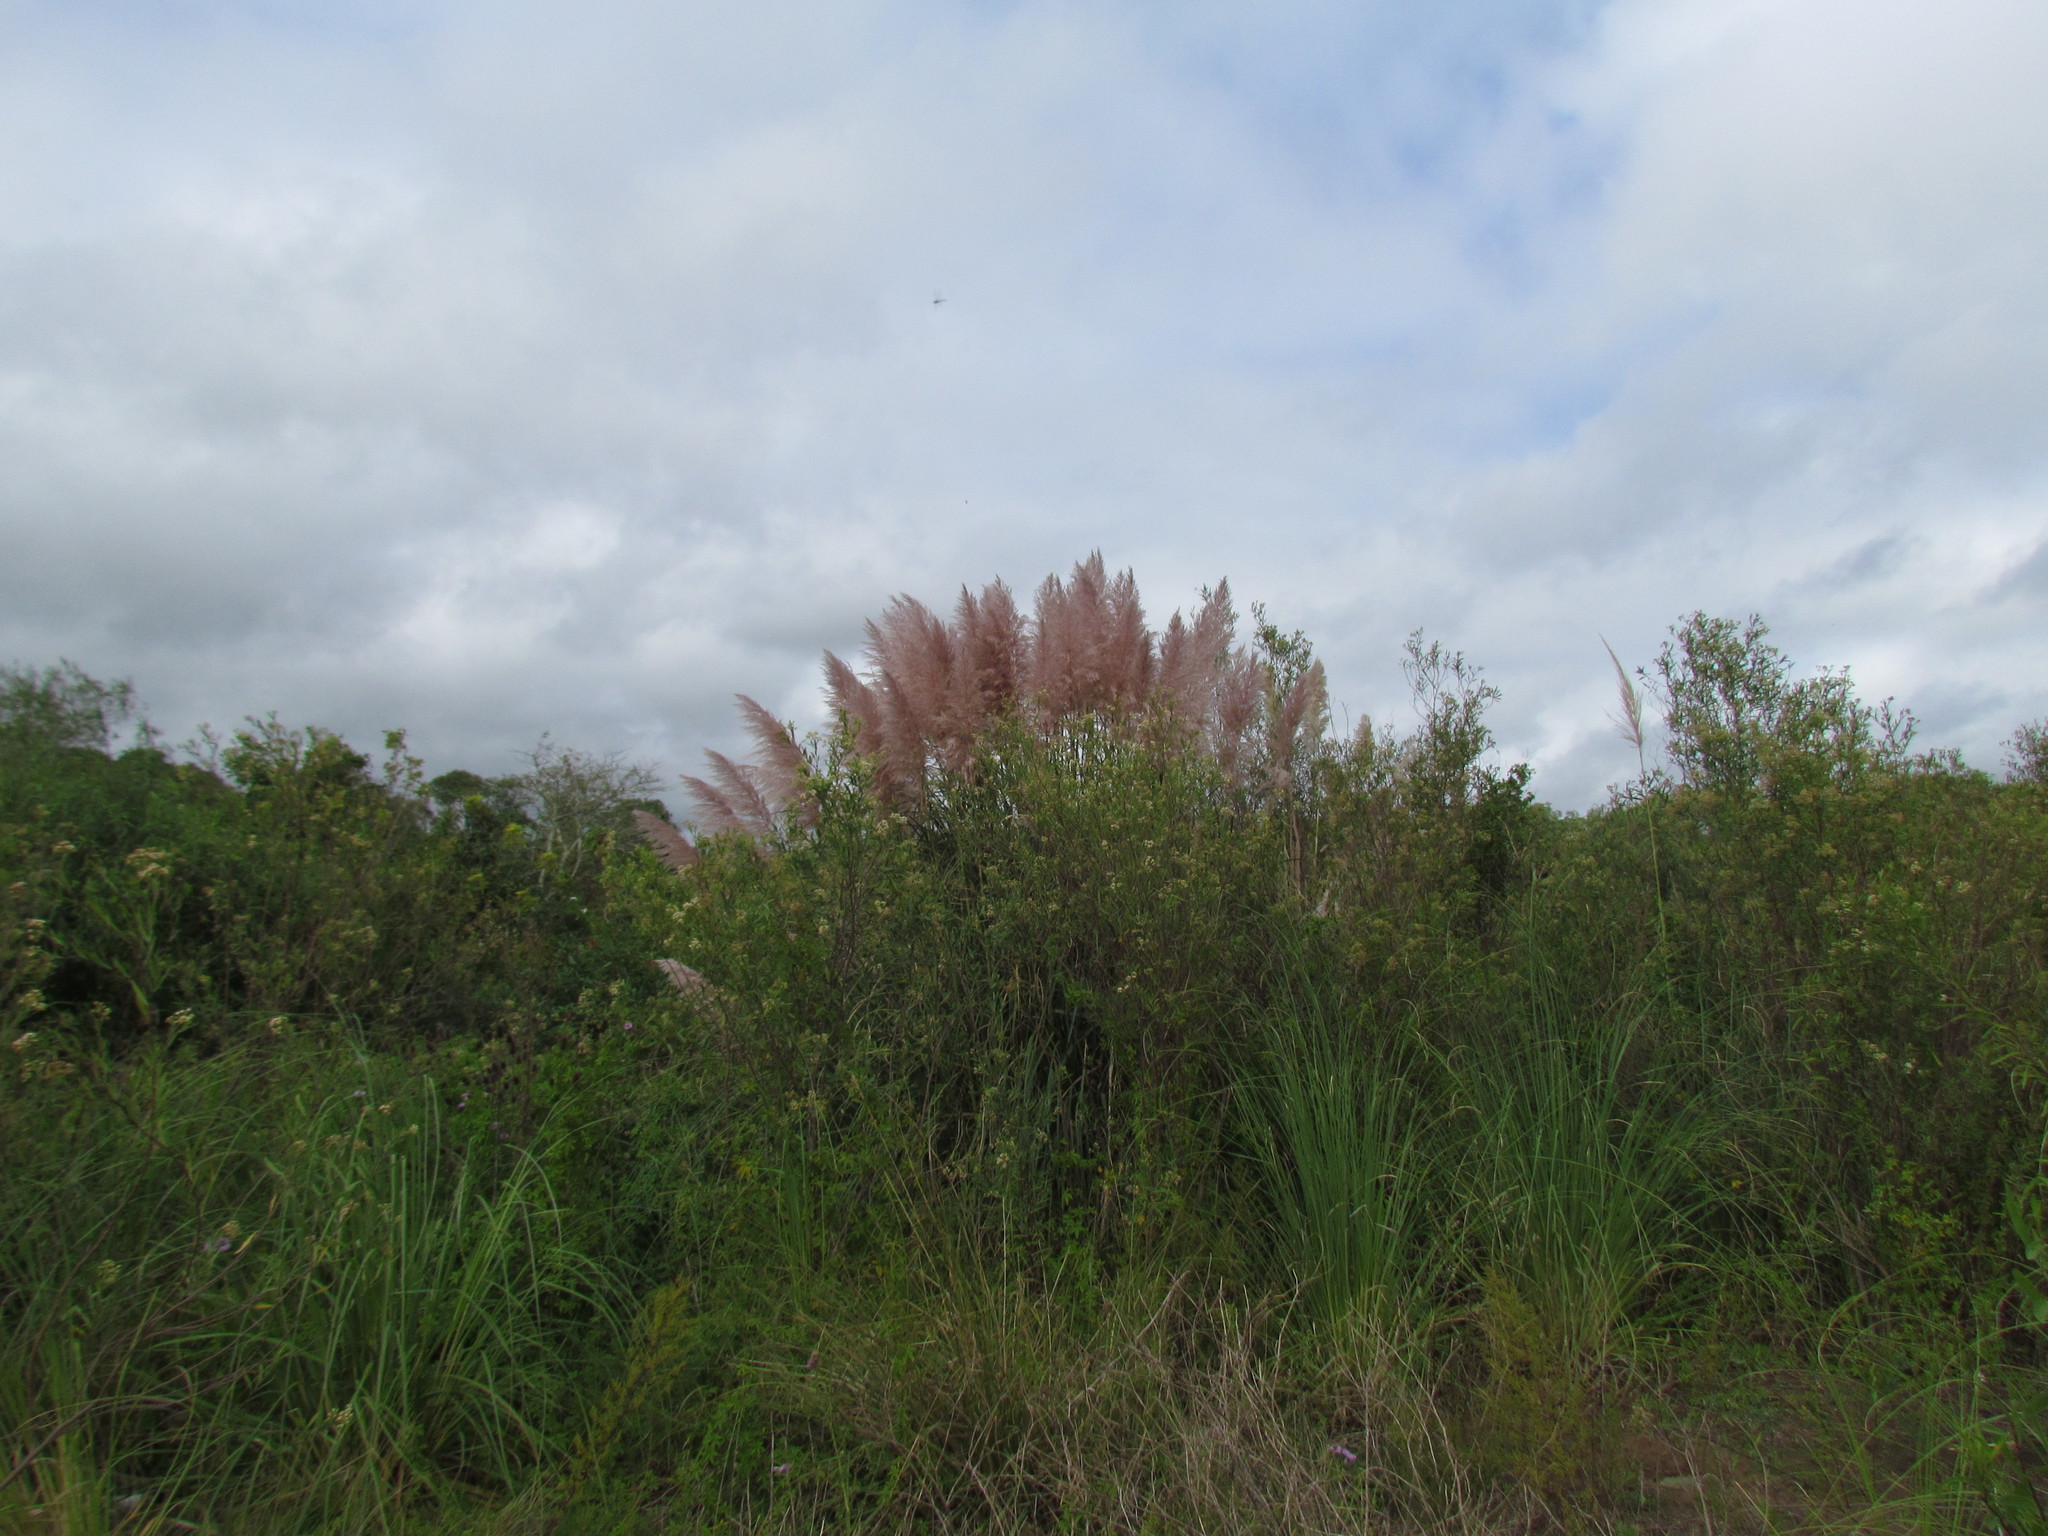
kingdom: Plantae
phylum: Tracheophyta
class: Liliopsida
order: Poales
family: Poaceae
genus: Cortaderia
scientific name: Cortaderia selloana
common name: Uruguayan pampas grass
